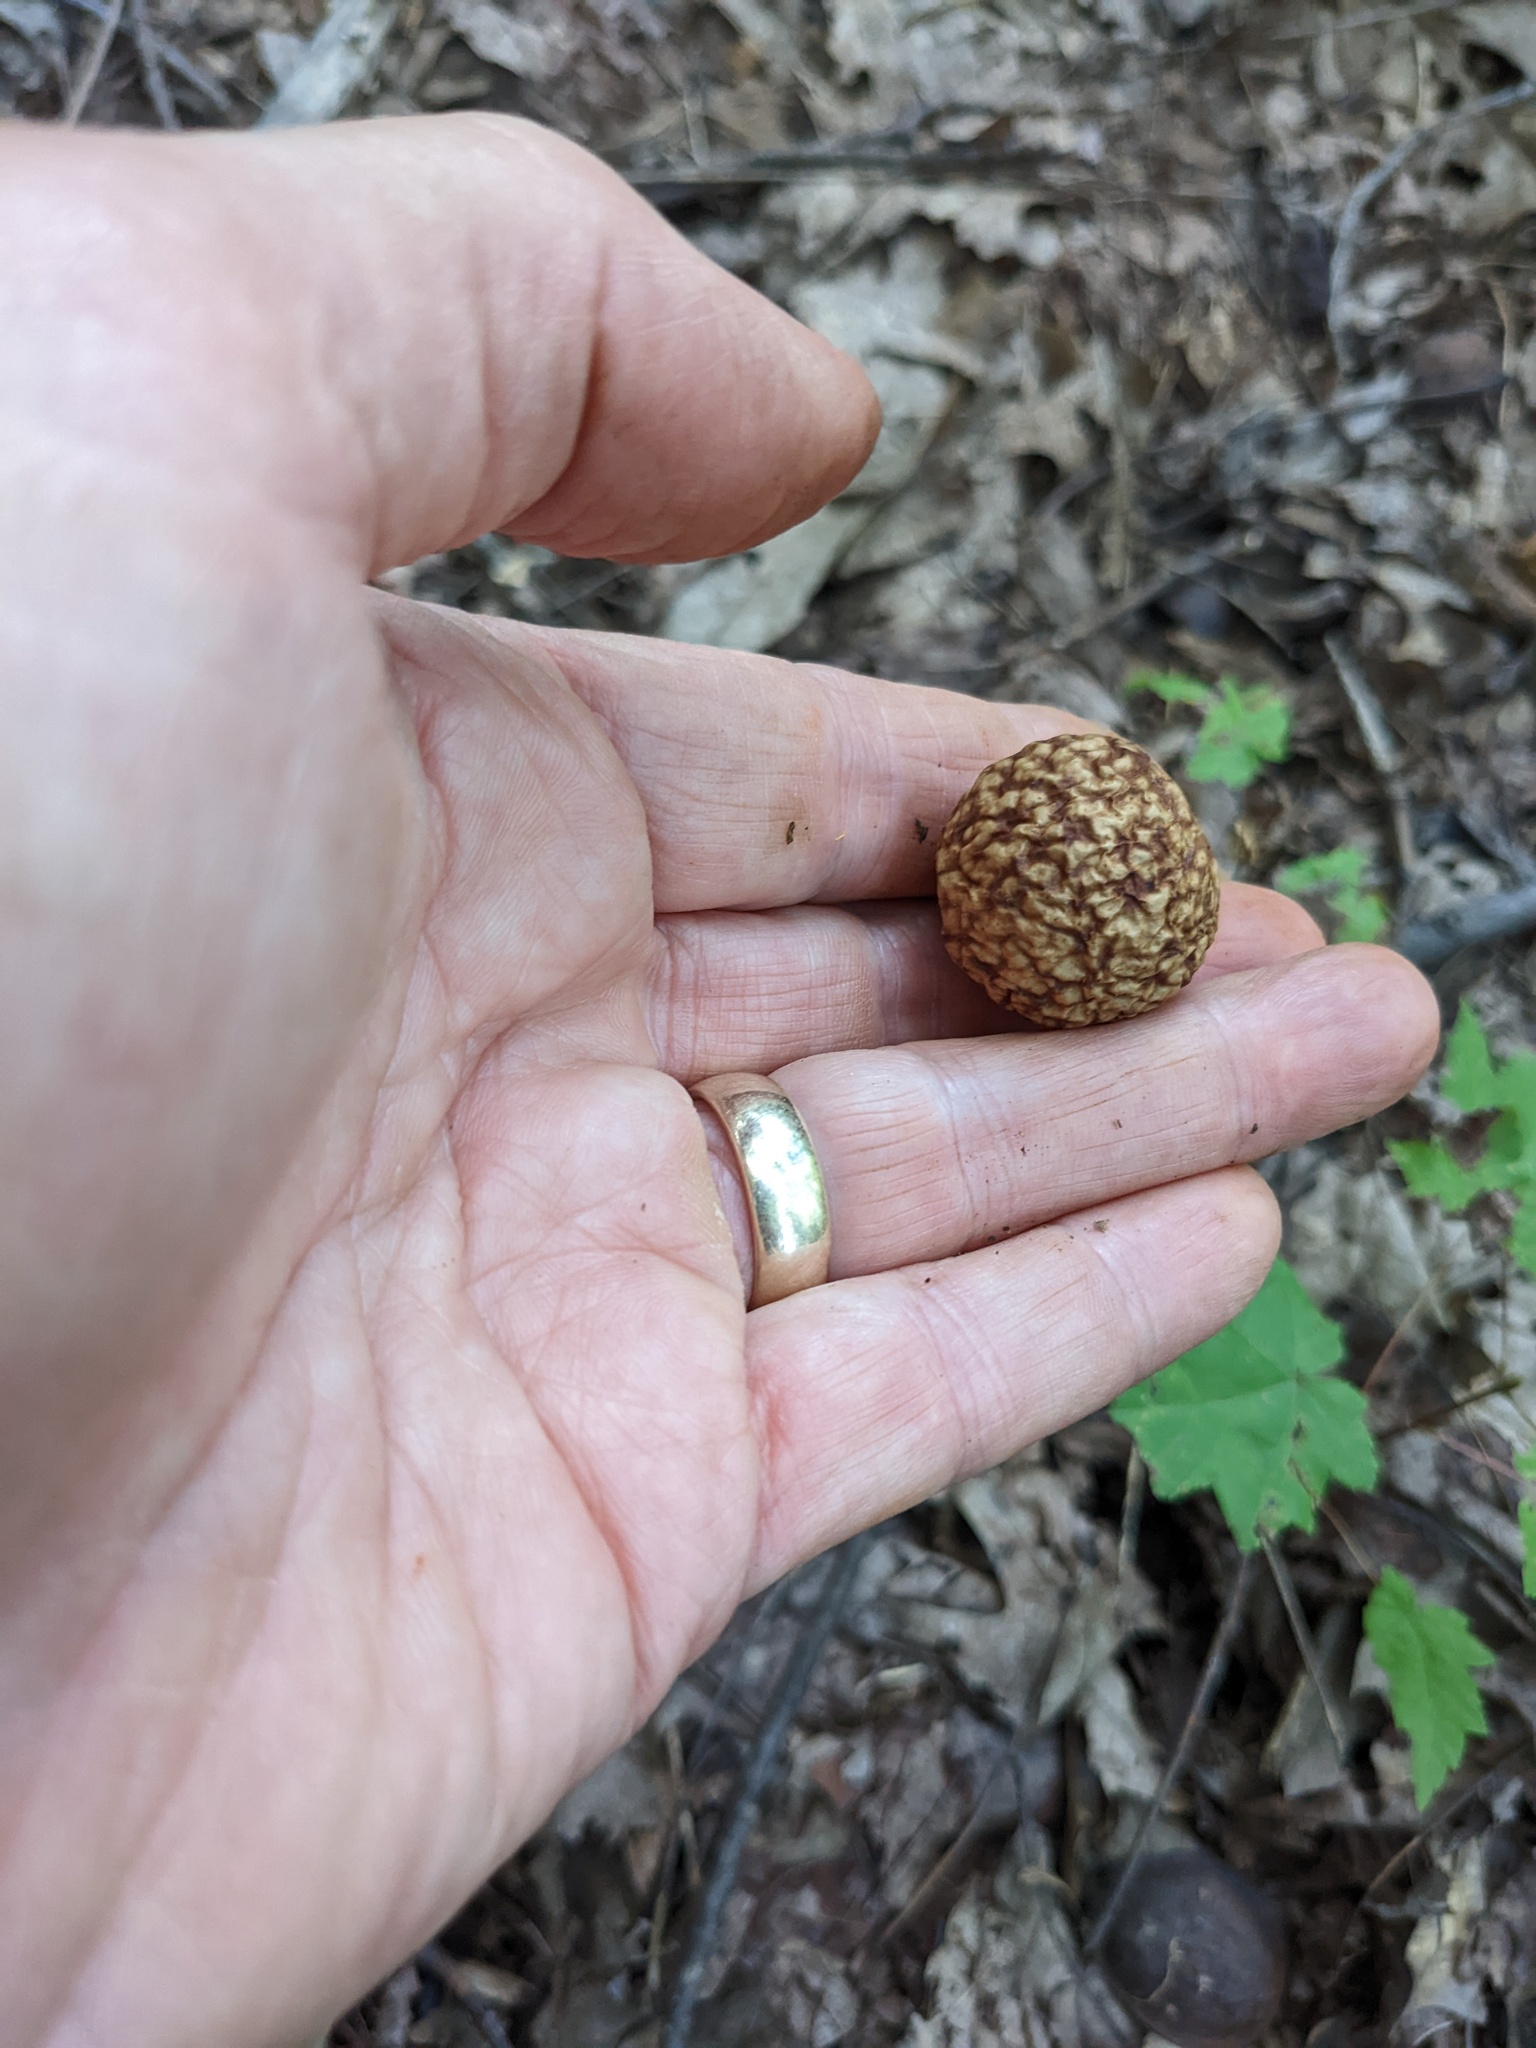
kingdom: Animalia
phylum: Arthropoda
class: Insecta
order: Hymenoptera
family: Cynipidae
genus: Amphibolips
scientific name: Amphibolips
